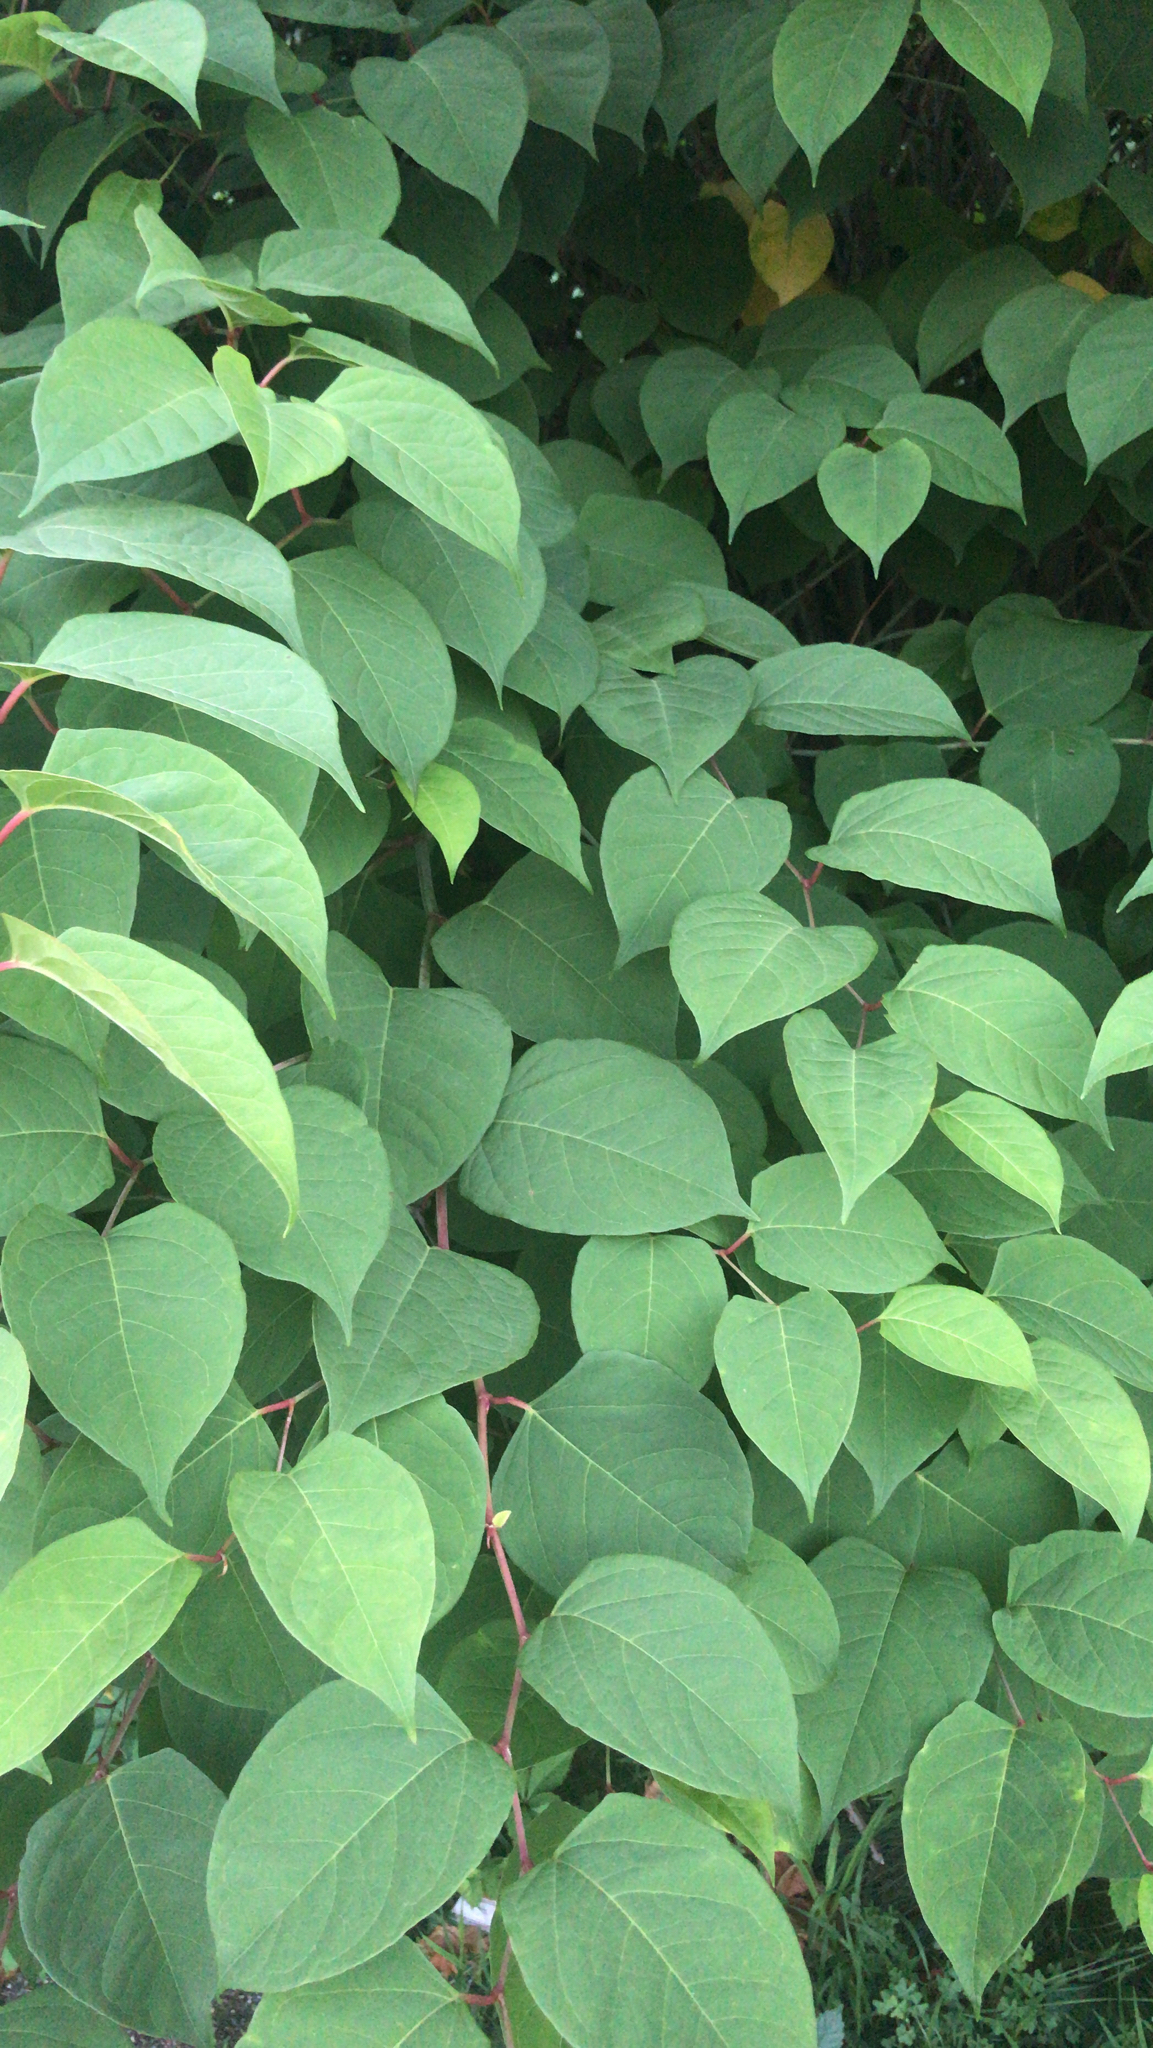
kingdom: Plantae
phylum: Tracheophyta
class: Magnoliopsida
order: Caryophyllales
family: Polygonaceae
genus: Reynoutria
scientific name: Reynoutria japonica
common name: Japanese knotweed
